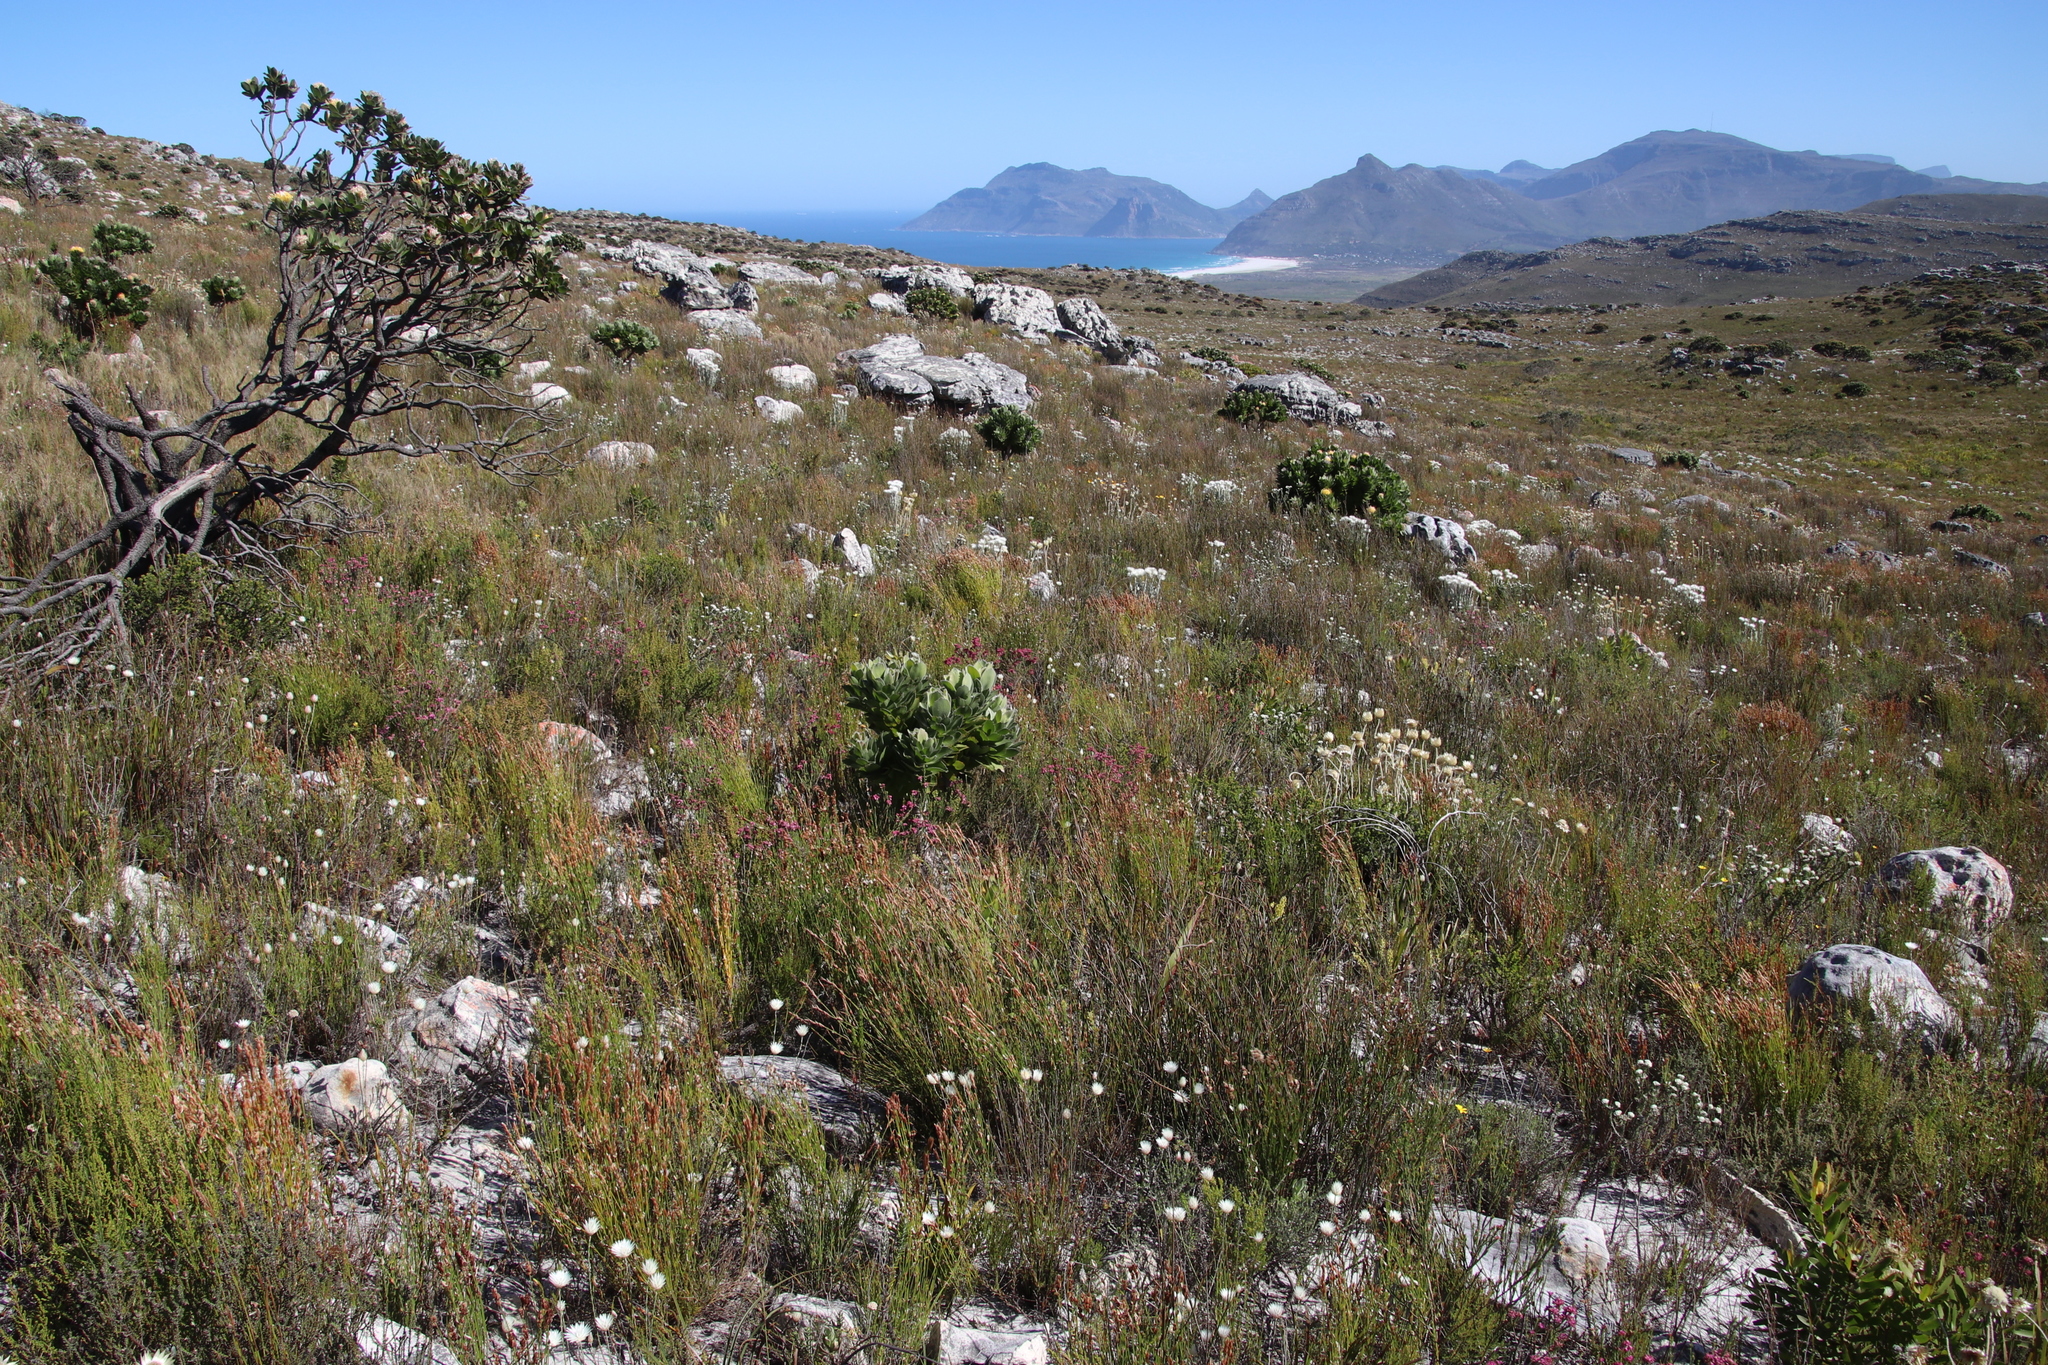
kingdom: Plantae
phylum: Tracheophyta
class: Magnoliopsida
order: Proteales
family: Proteaceae
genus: Leucospermum
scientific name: Leucospermum conocarpodendron
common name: Tree pincushion
